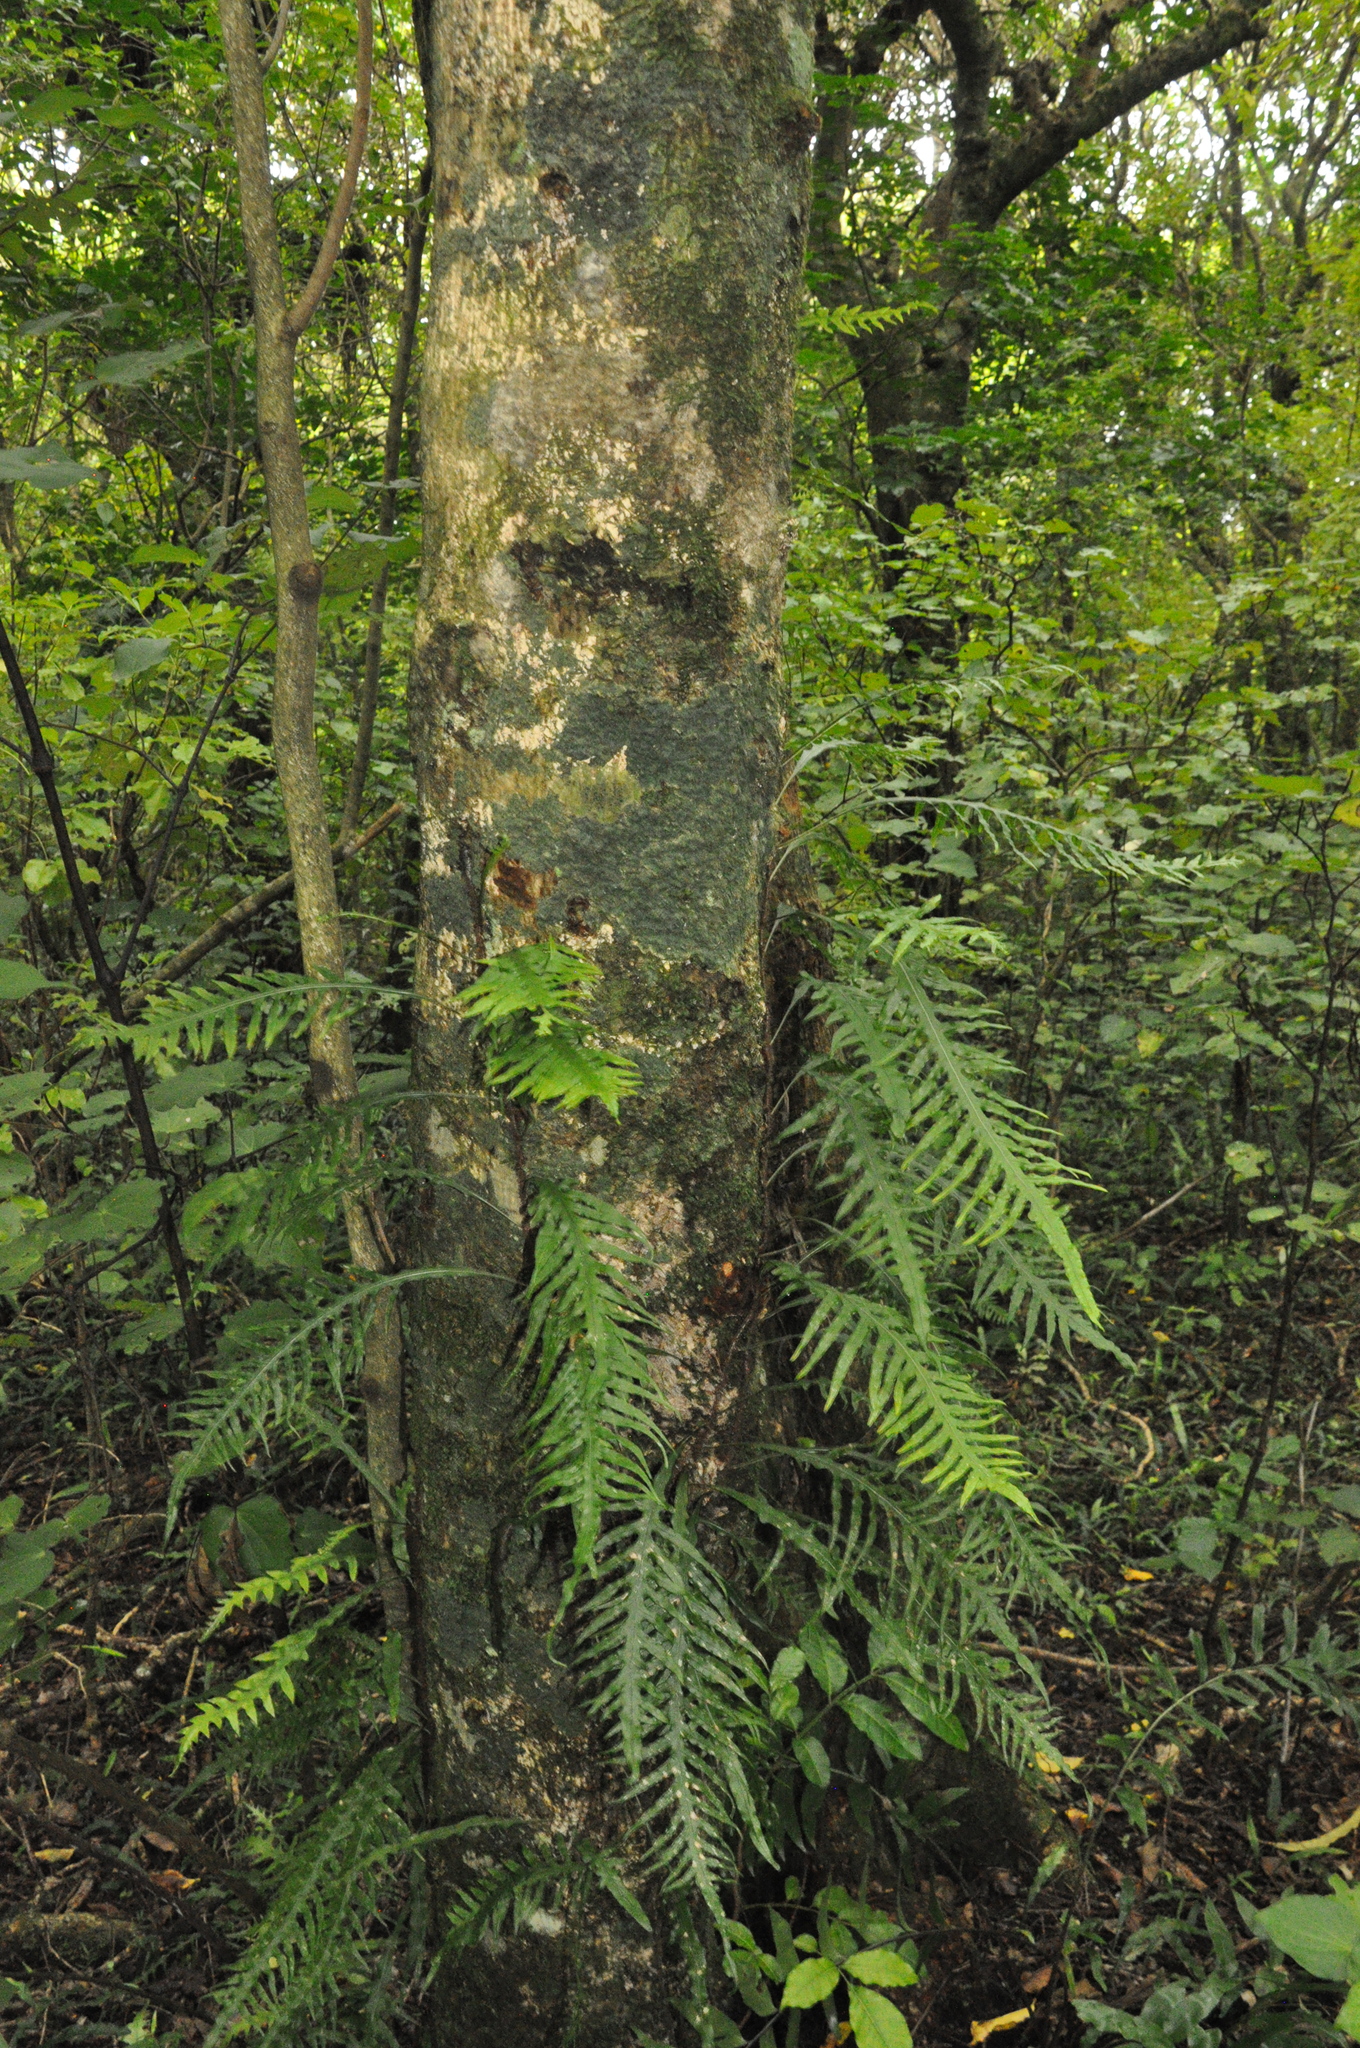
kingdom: Plantae
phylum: Tracheophyta
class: Polypodiopsida
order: Polypodiales
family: Polypodiaceae
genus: Lecanopteris
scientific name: Lecanopteris scandens
